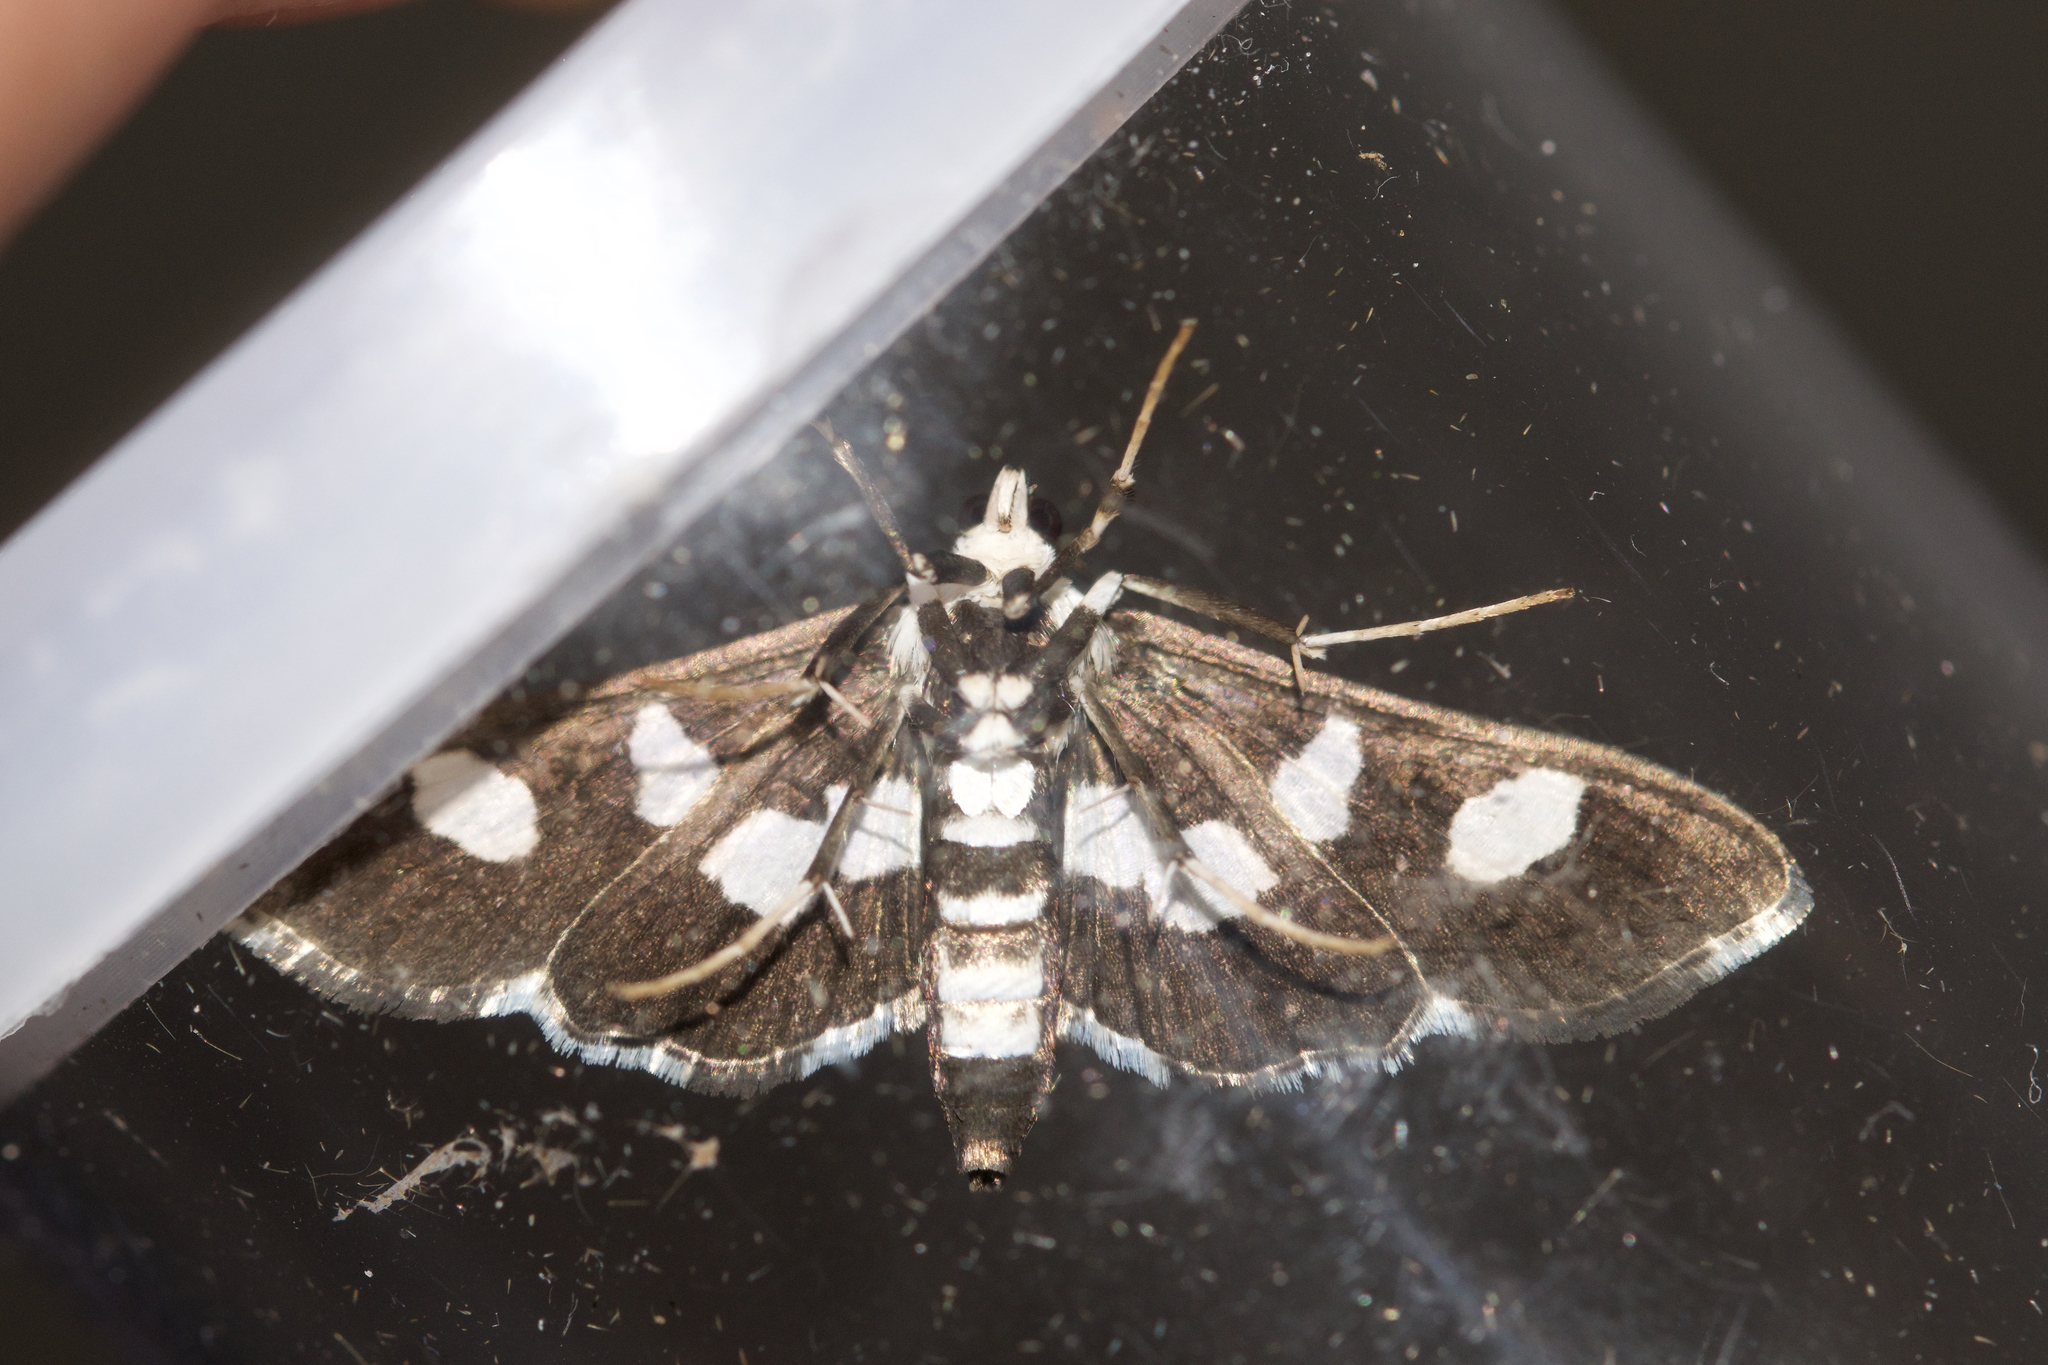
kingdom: Animalia
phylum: Arthropoda
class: Insecta
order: Lepidoptera
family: Crambidae
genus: Desmia
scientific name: Desmia funeralis
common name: Grape leaf folder moth
